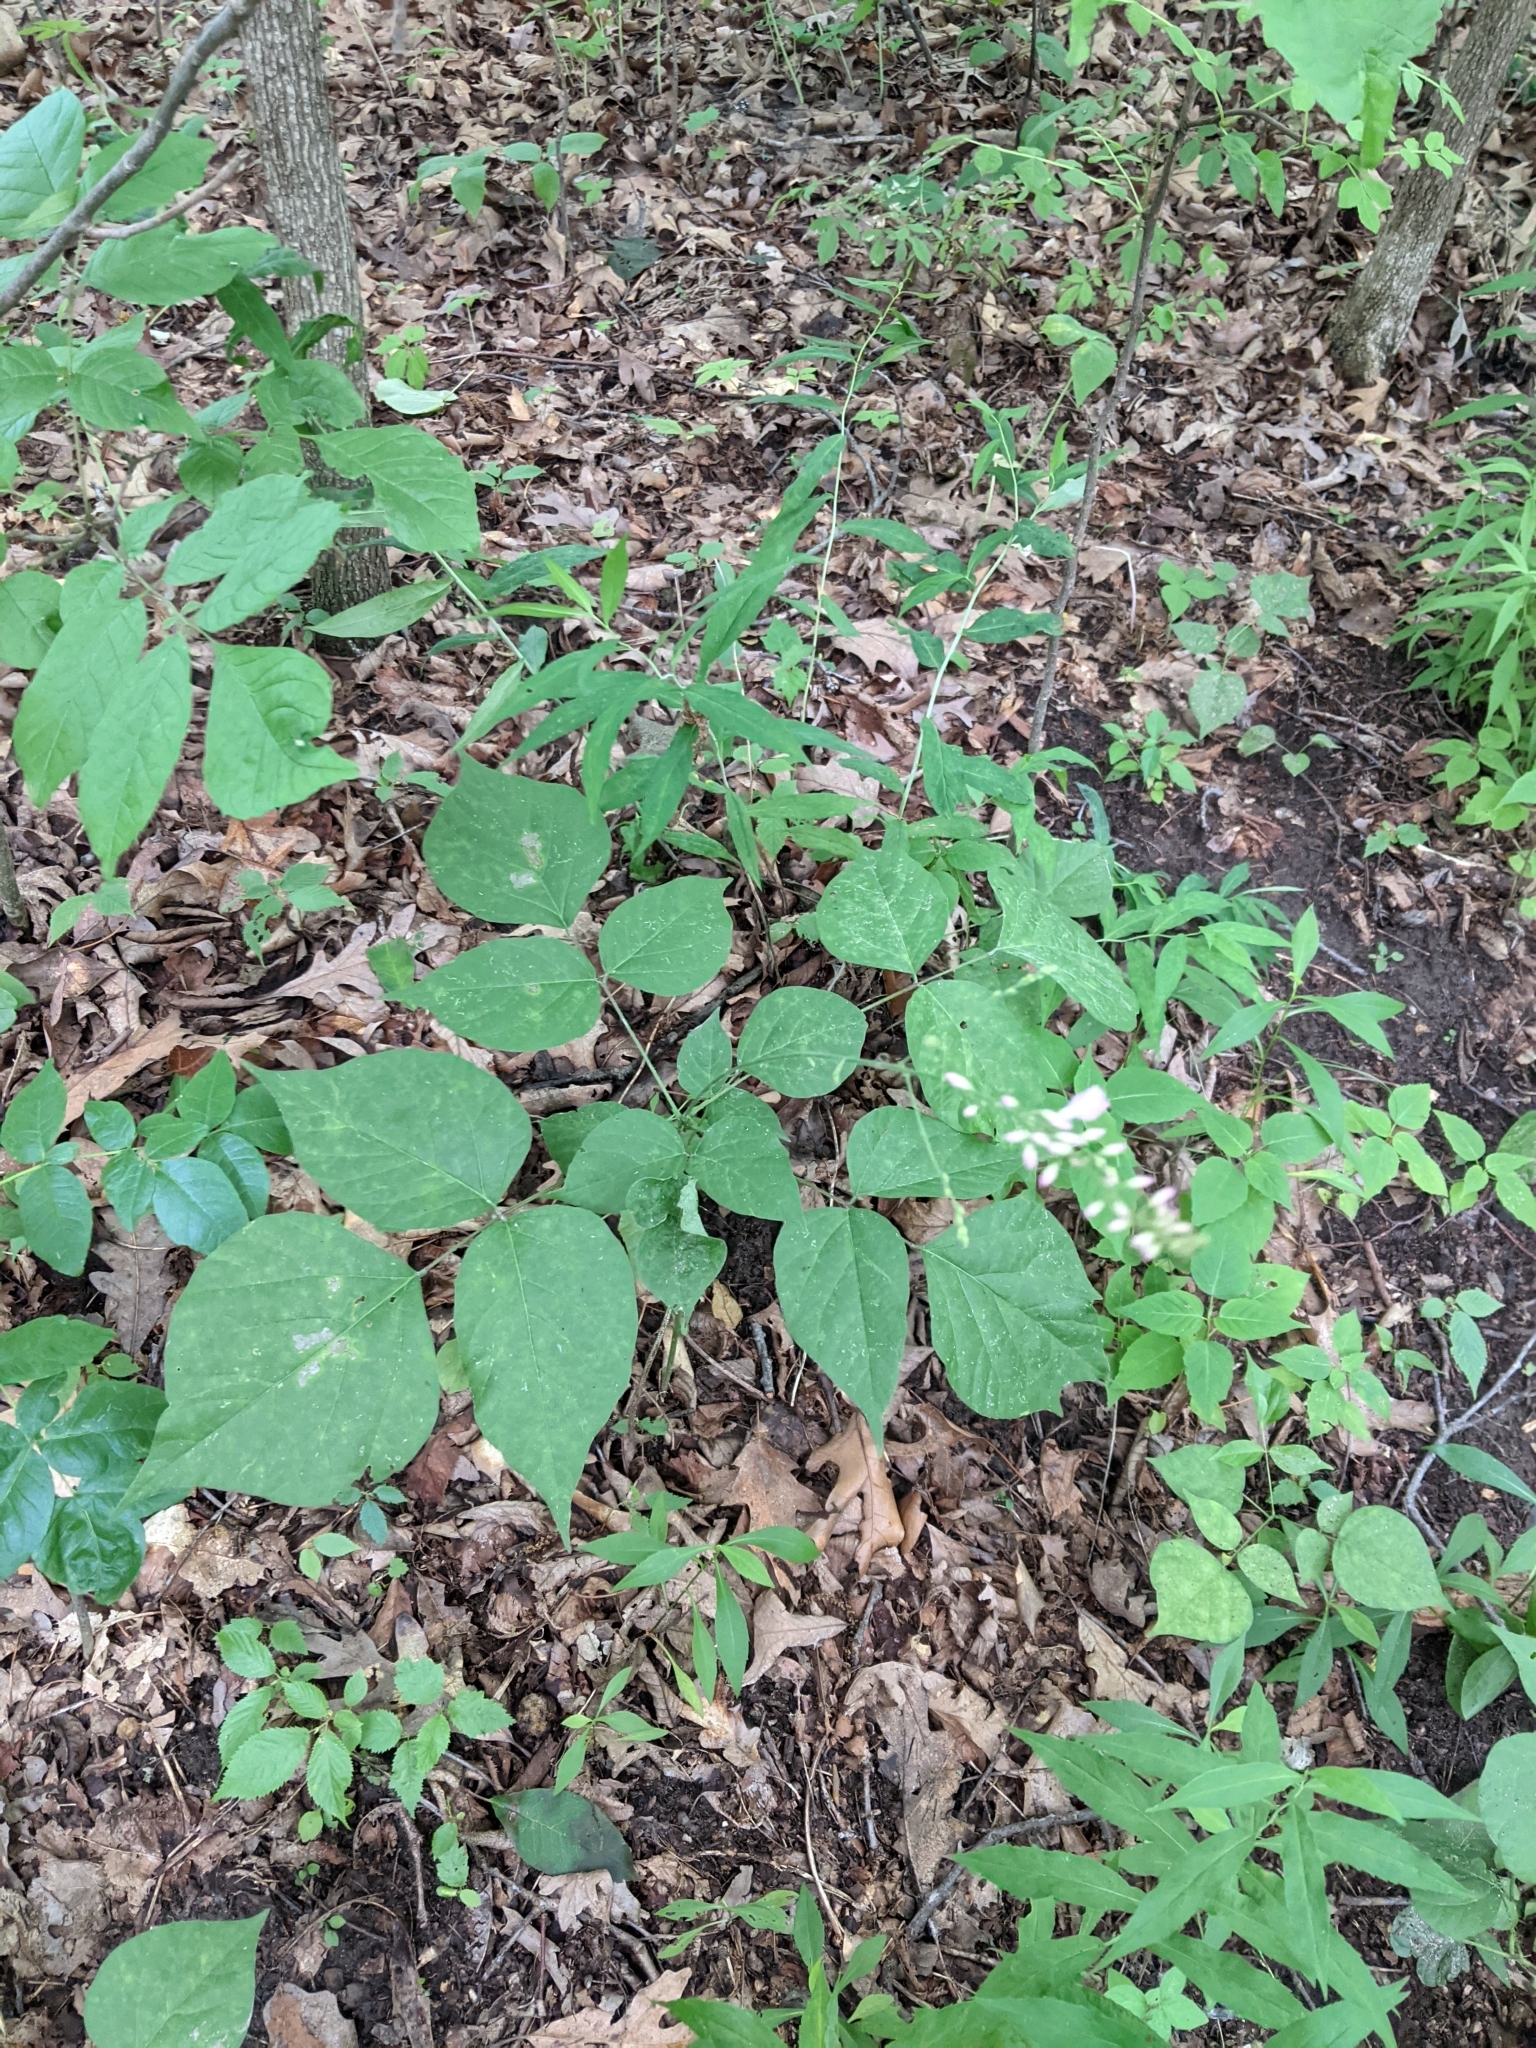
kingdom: Plantae
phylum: Tracheophyta
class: Magnoliopsida
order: Fabales
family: Fabaceae
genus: Hylodesmum
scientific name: Hylodesmum glutinosum
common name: Clustered-leaved tick-trefoil
